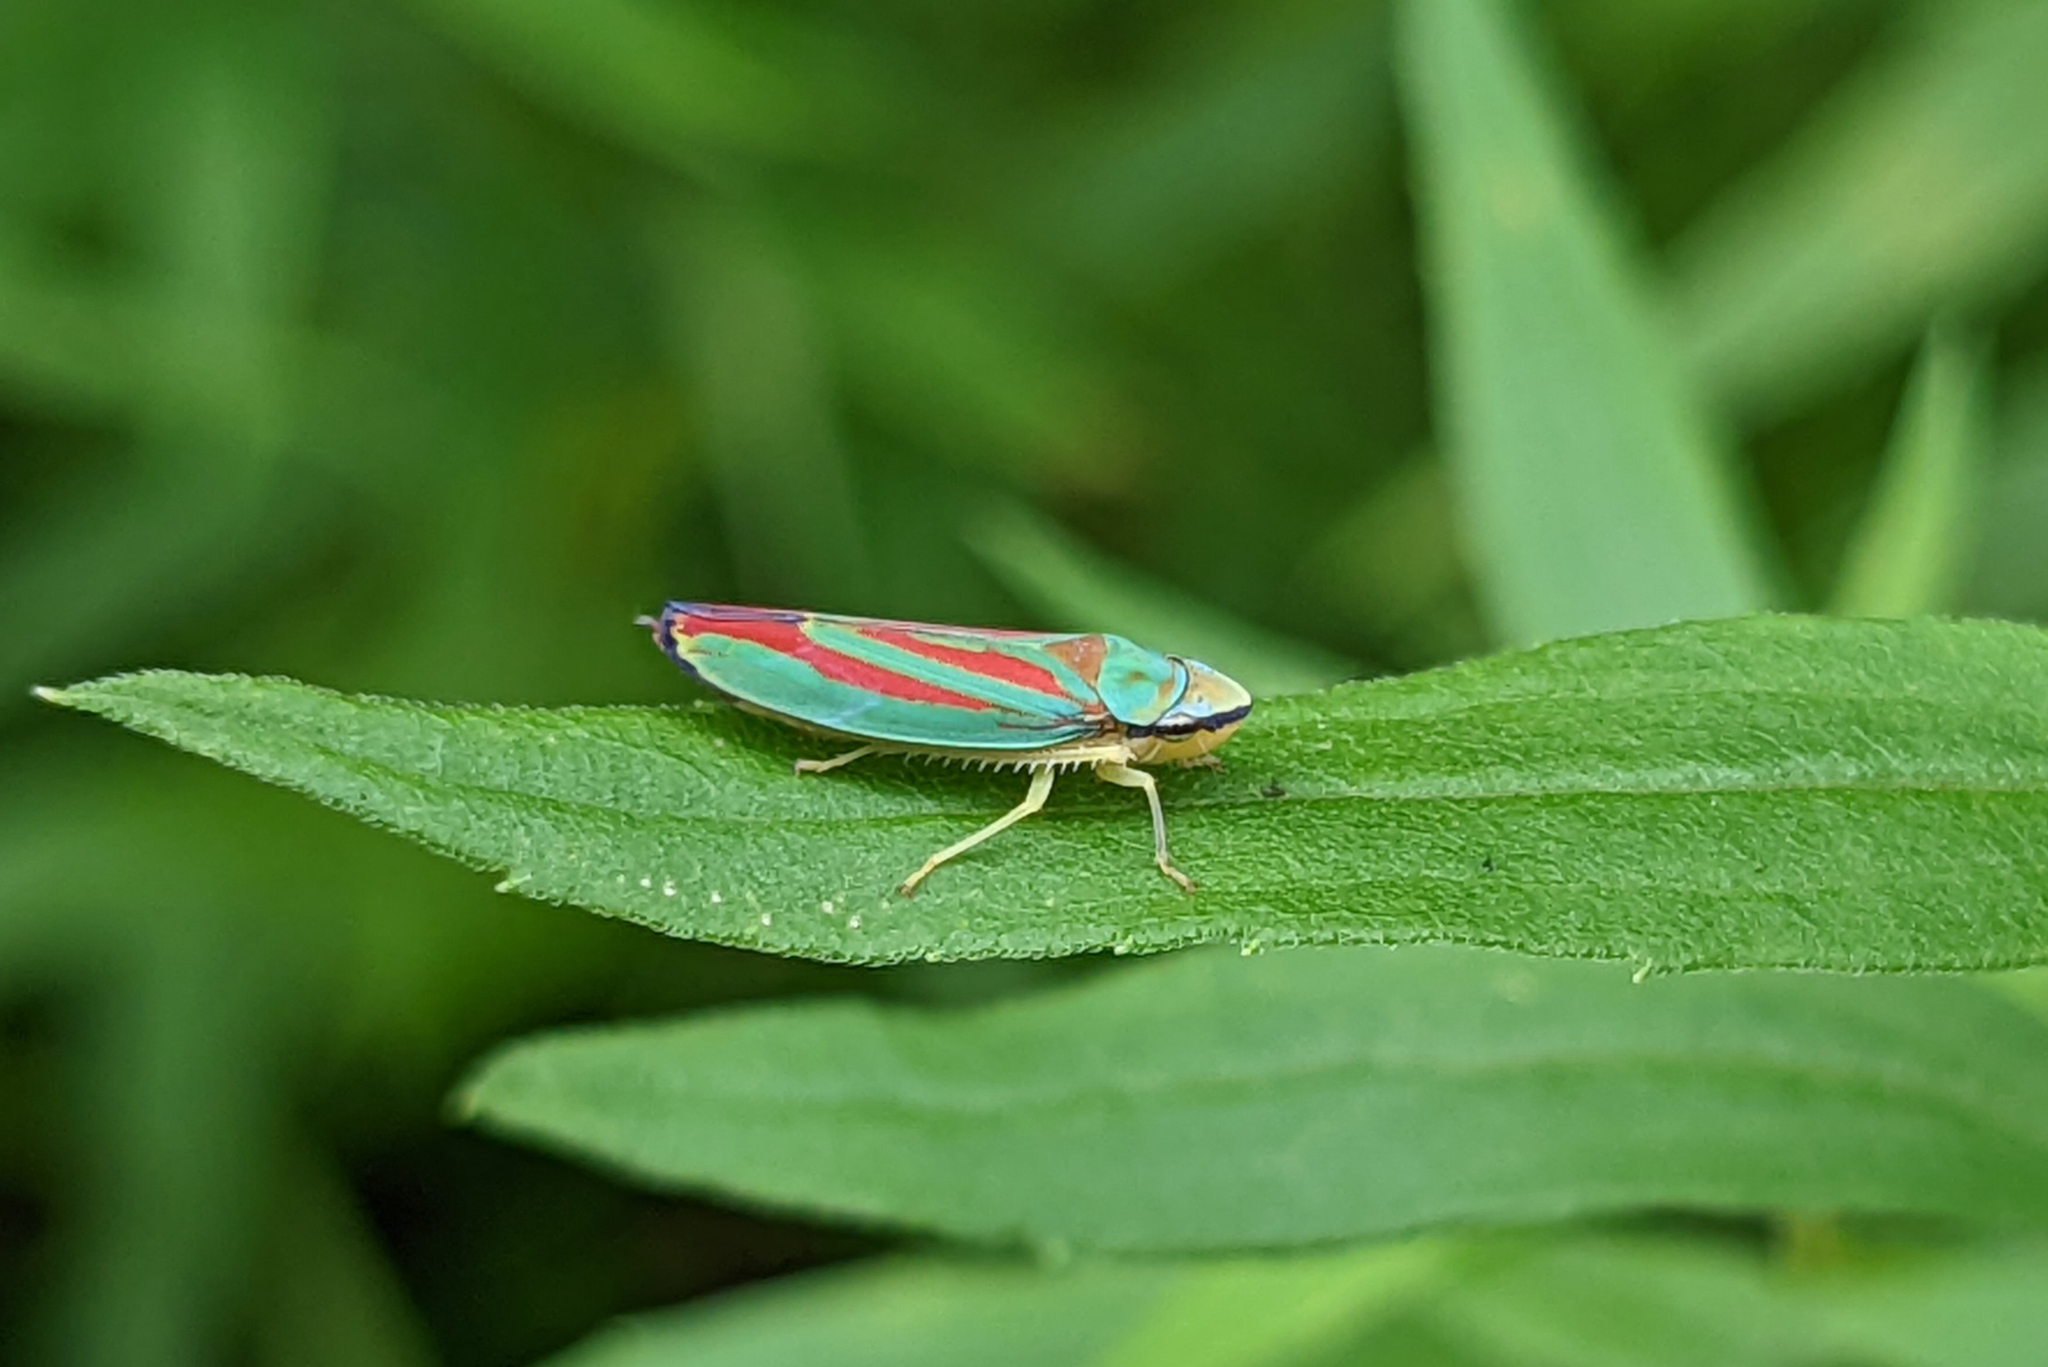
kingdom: Animalia
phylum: Arthropoda
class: Insecta
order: Hemiptera
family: Cicadellidae
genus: Graphocephala
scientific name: Graphocephala fennahi
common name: Rhododendron leafhopper
